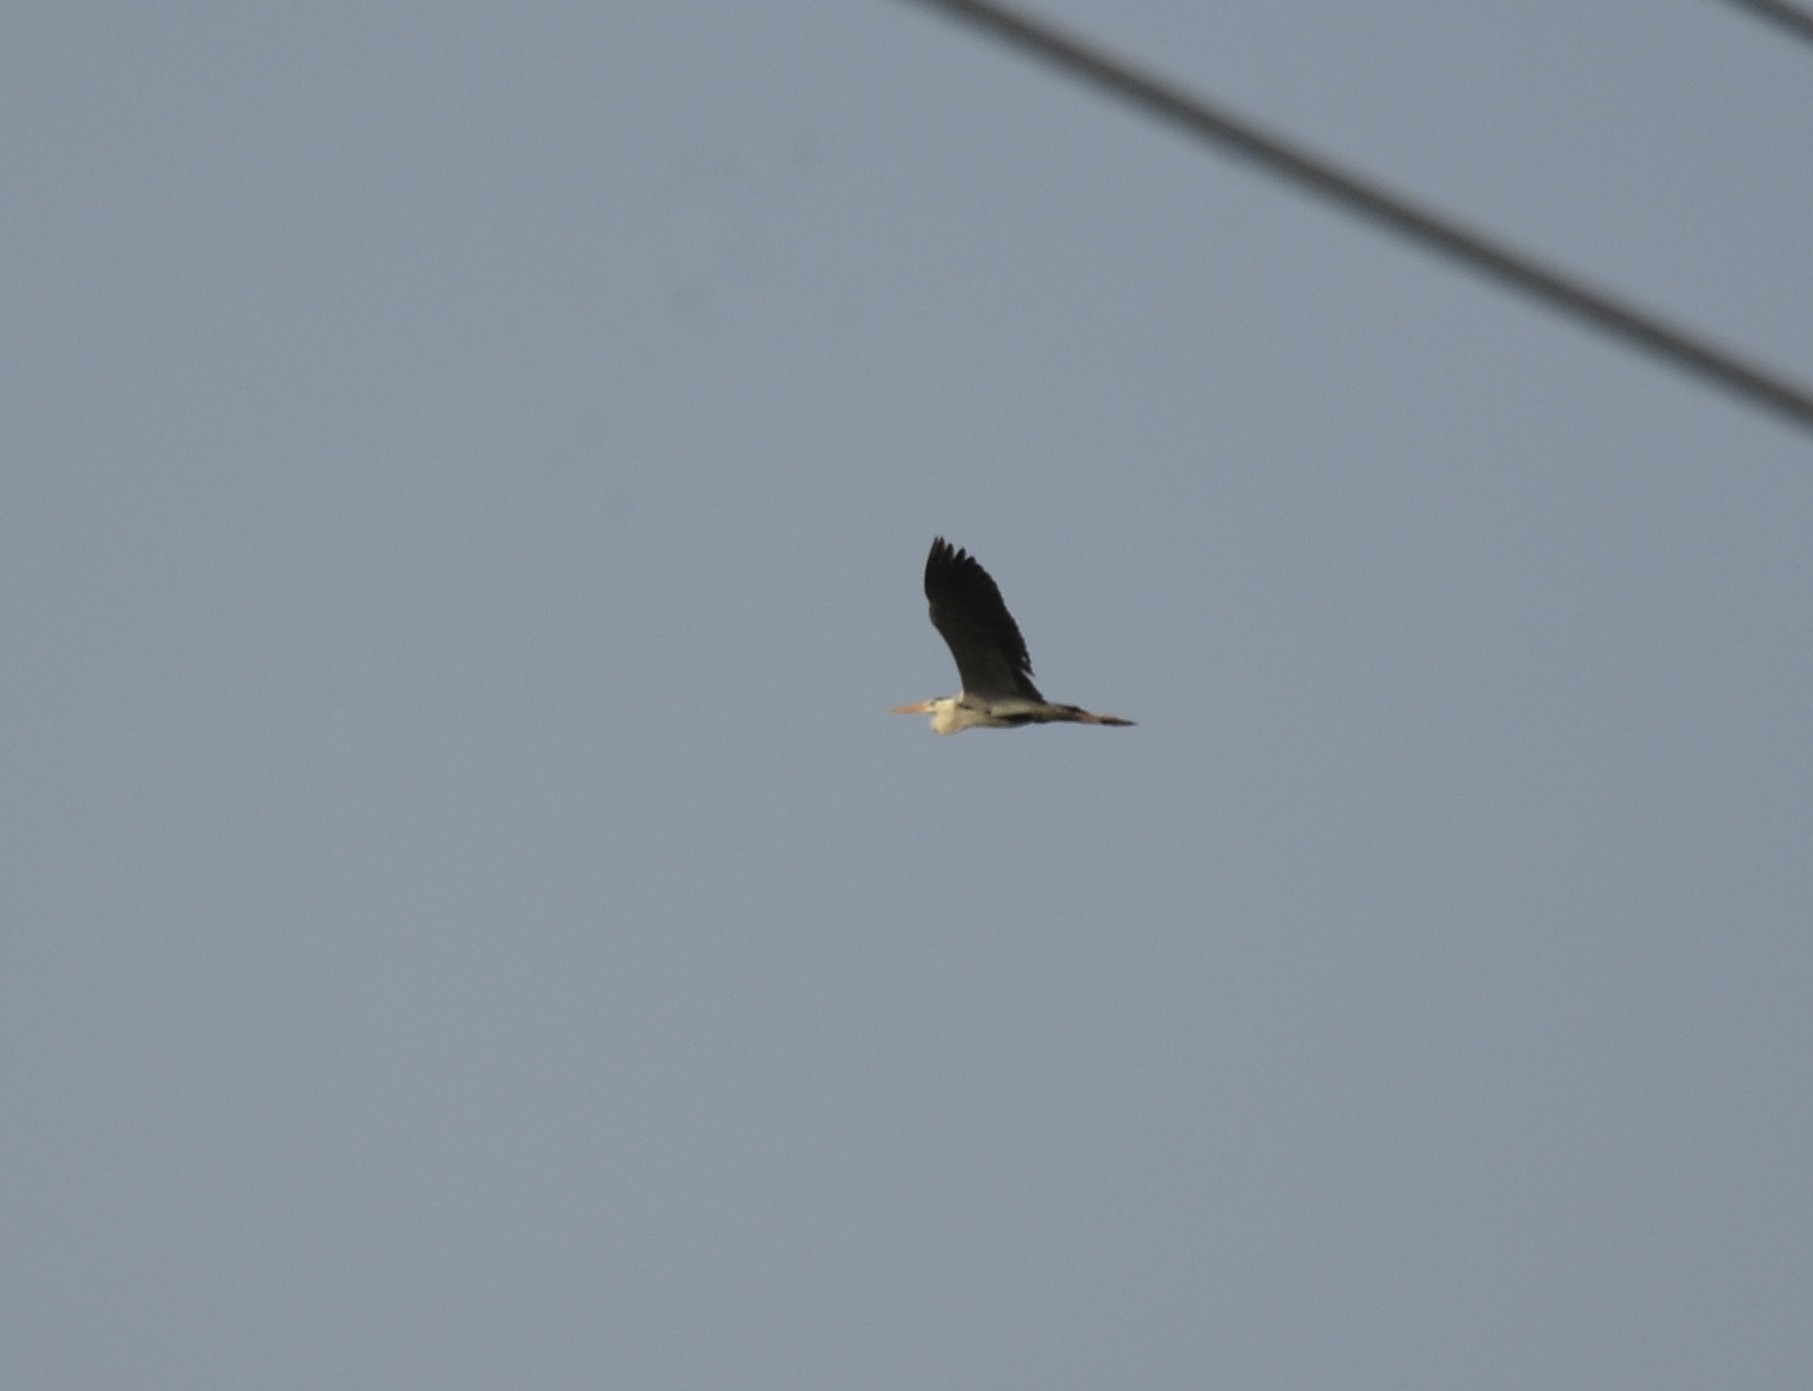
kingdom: Animalia
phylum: Chordata
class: Aves
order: Pelecaniformes
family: Ardeidae
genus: Ardea
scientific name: Ardea cinerea
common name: Grey heron
